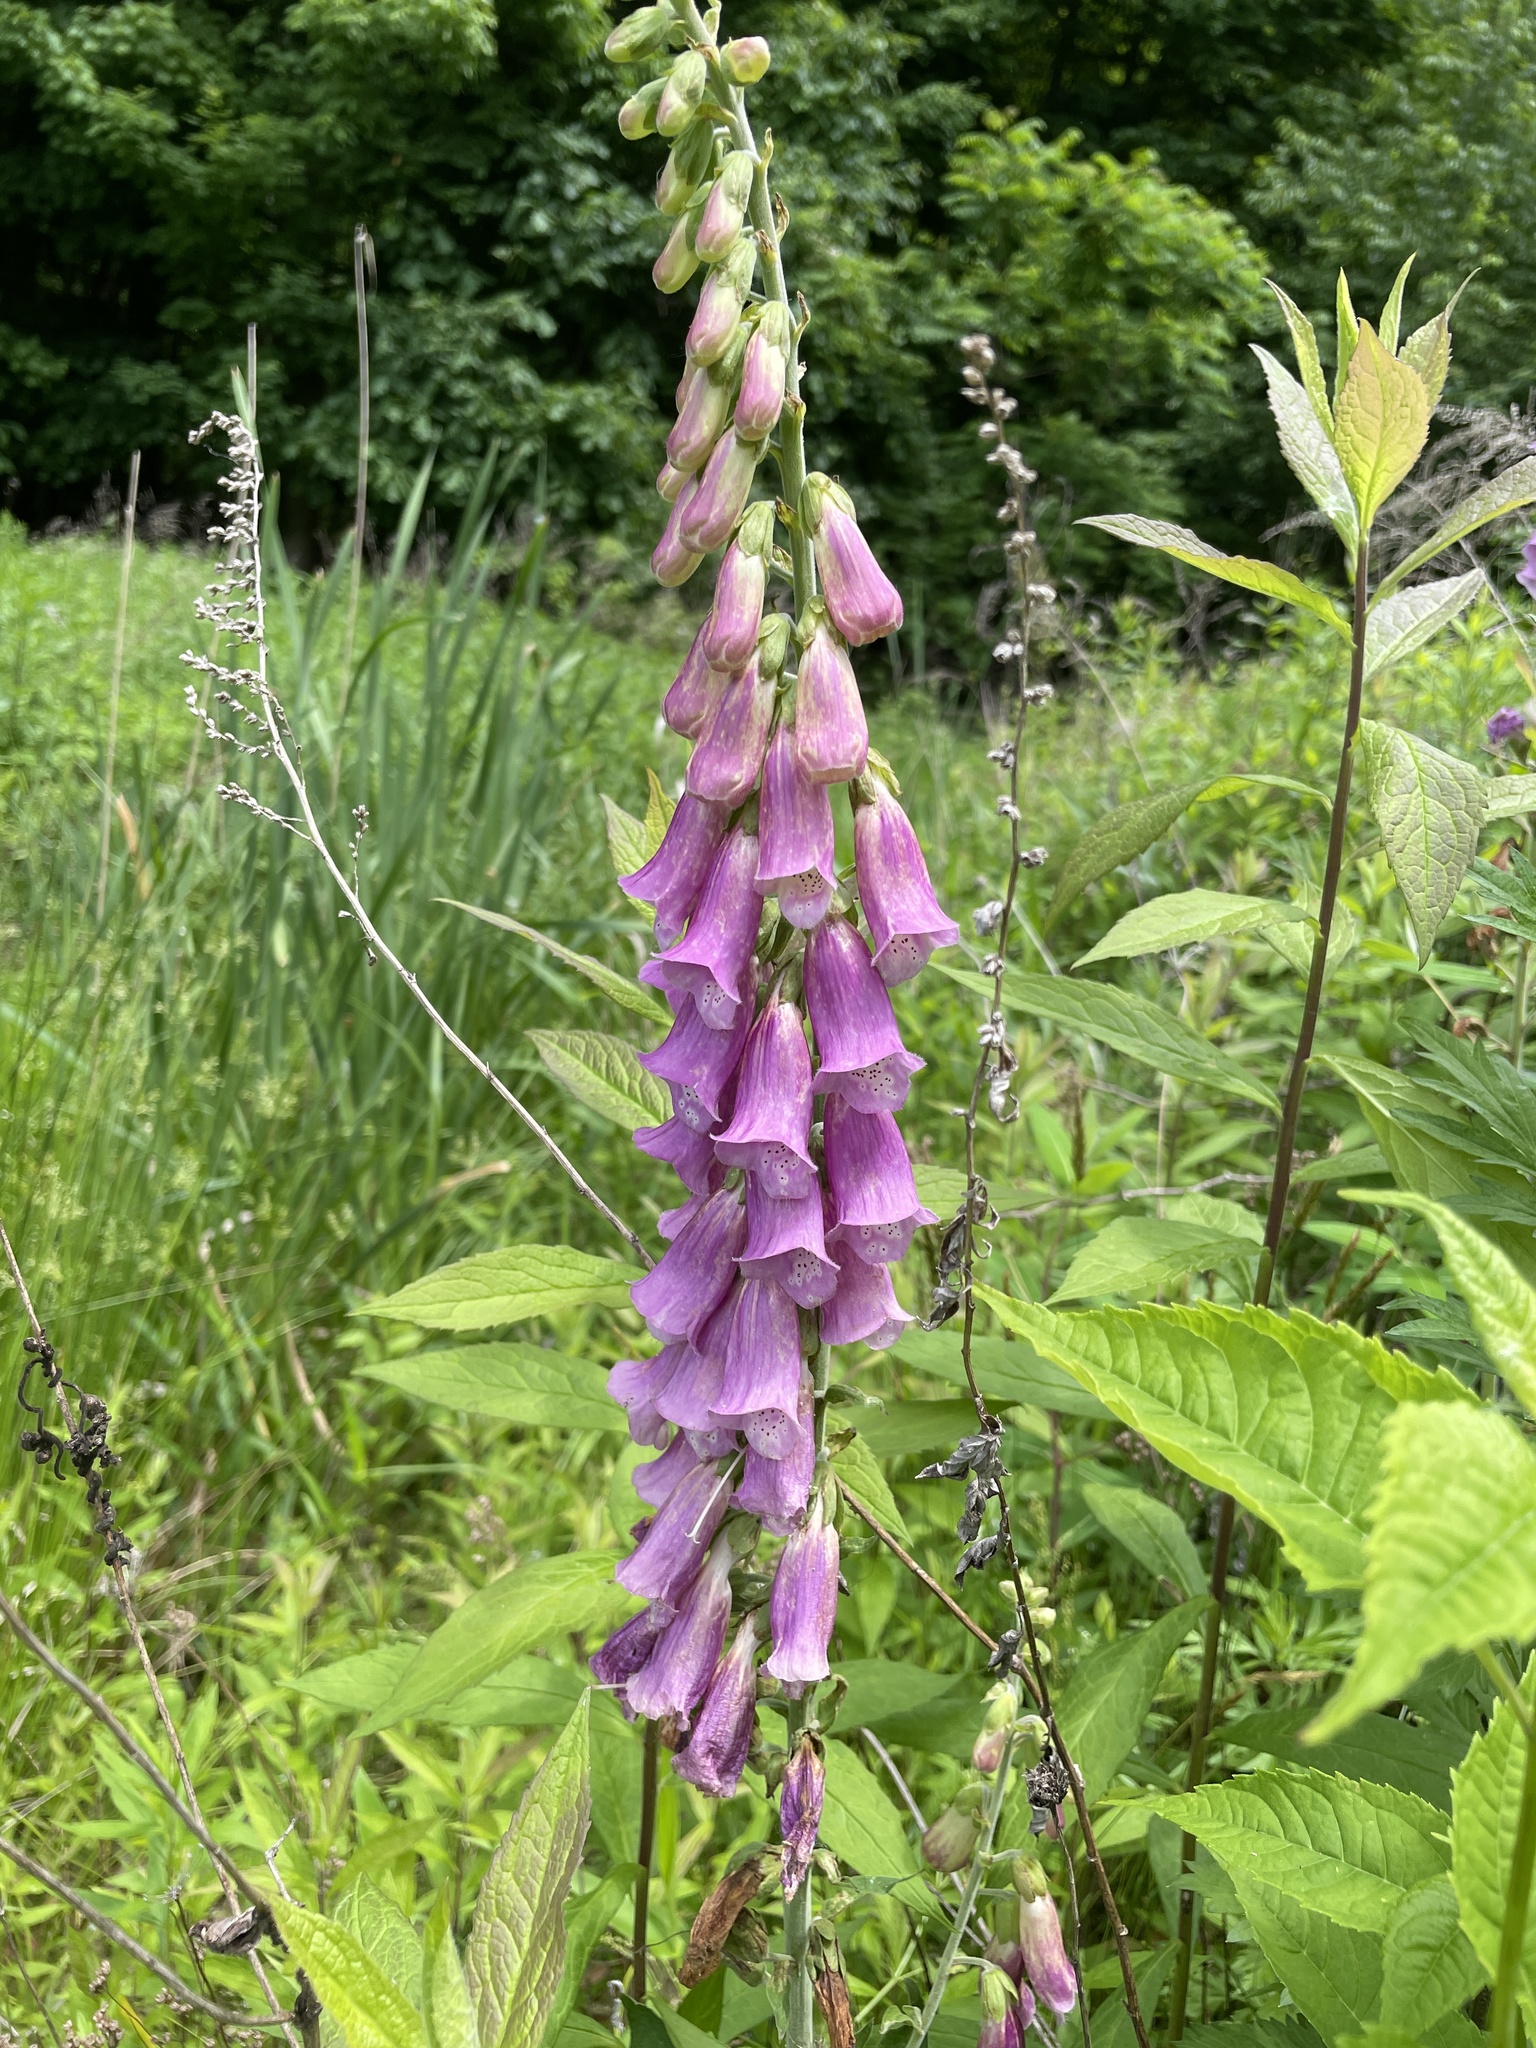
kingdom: Plantae
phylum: Tracheophyta
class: Magnoliopsida
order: Lamiales
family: Plantaginaceae
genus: Digitalis
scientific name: Digitalis purpurea
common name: Foxglove
